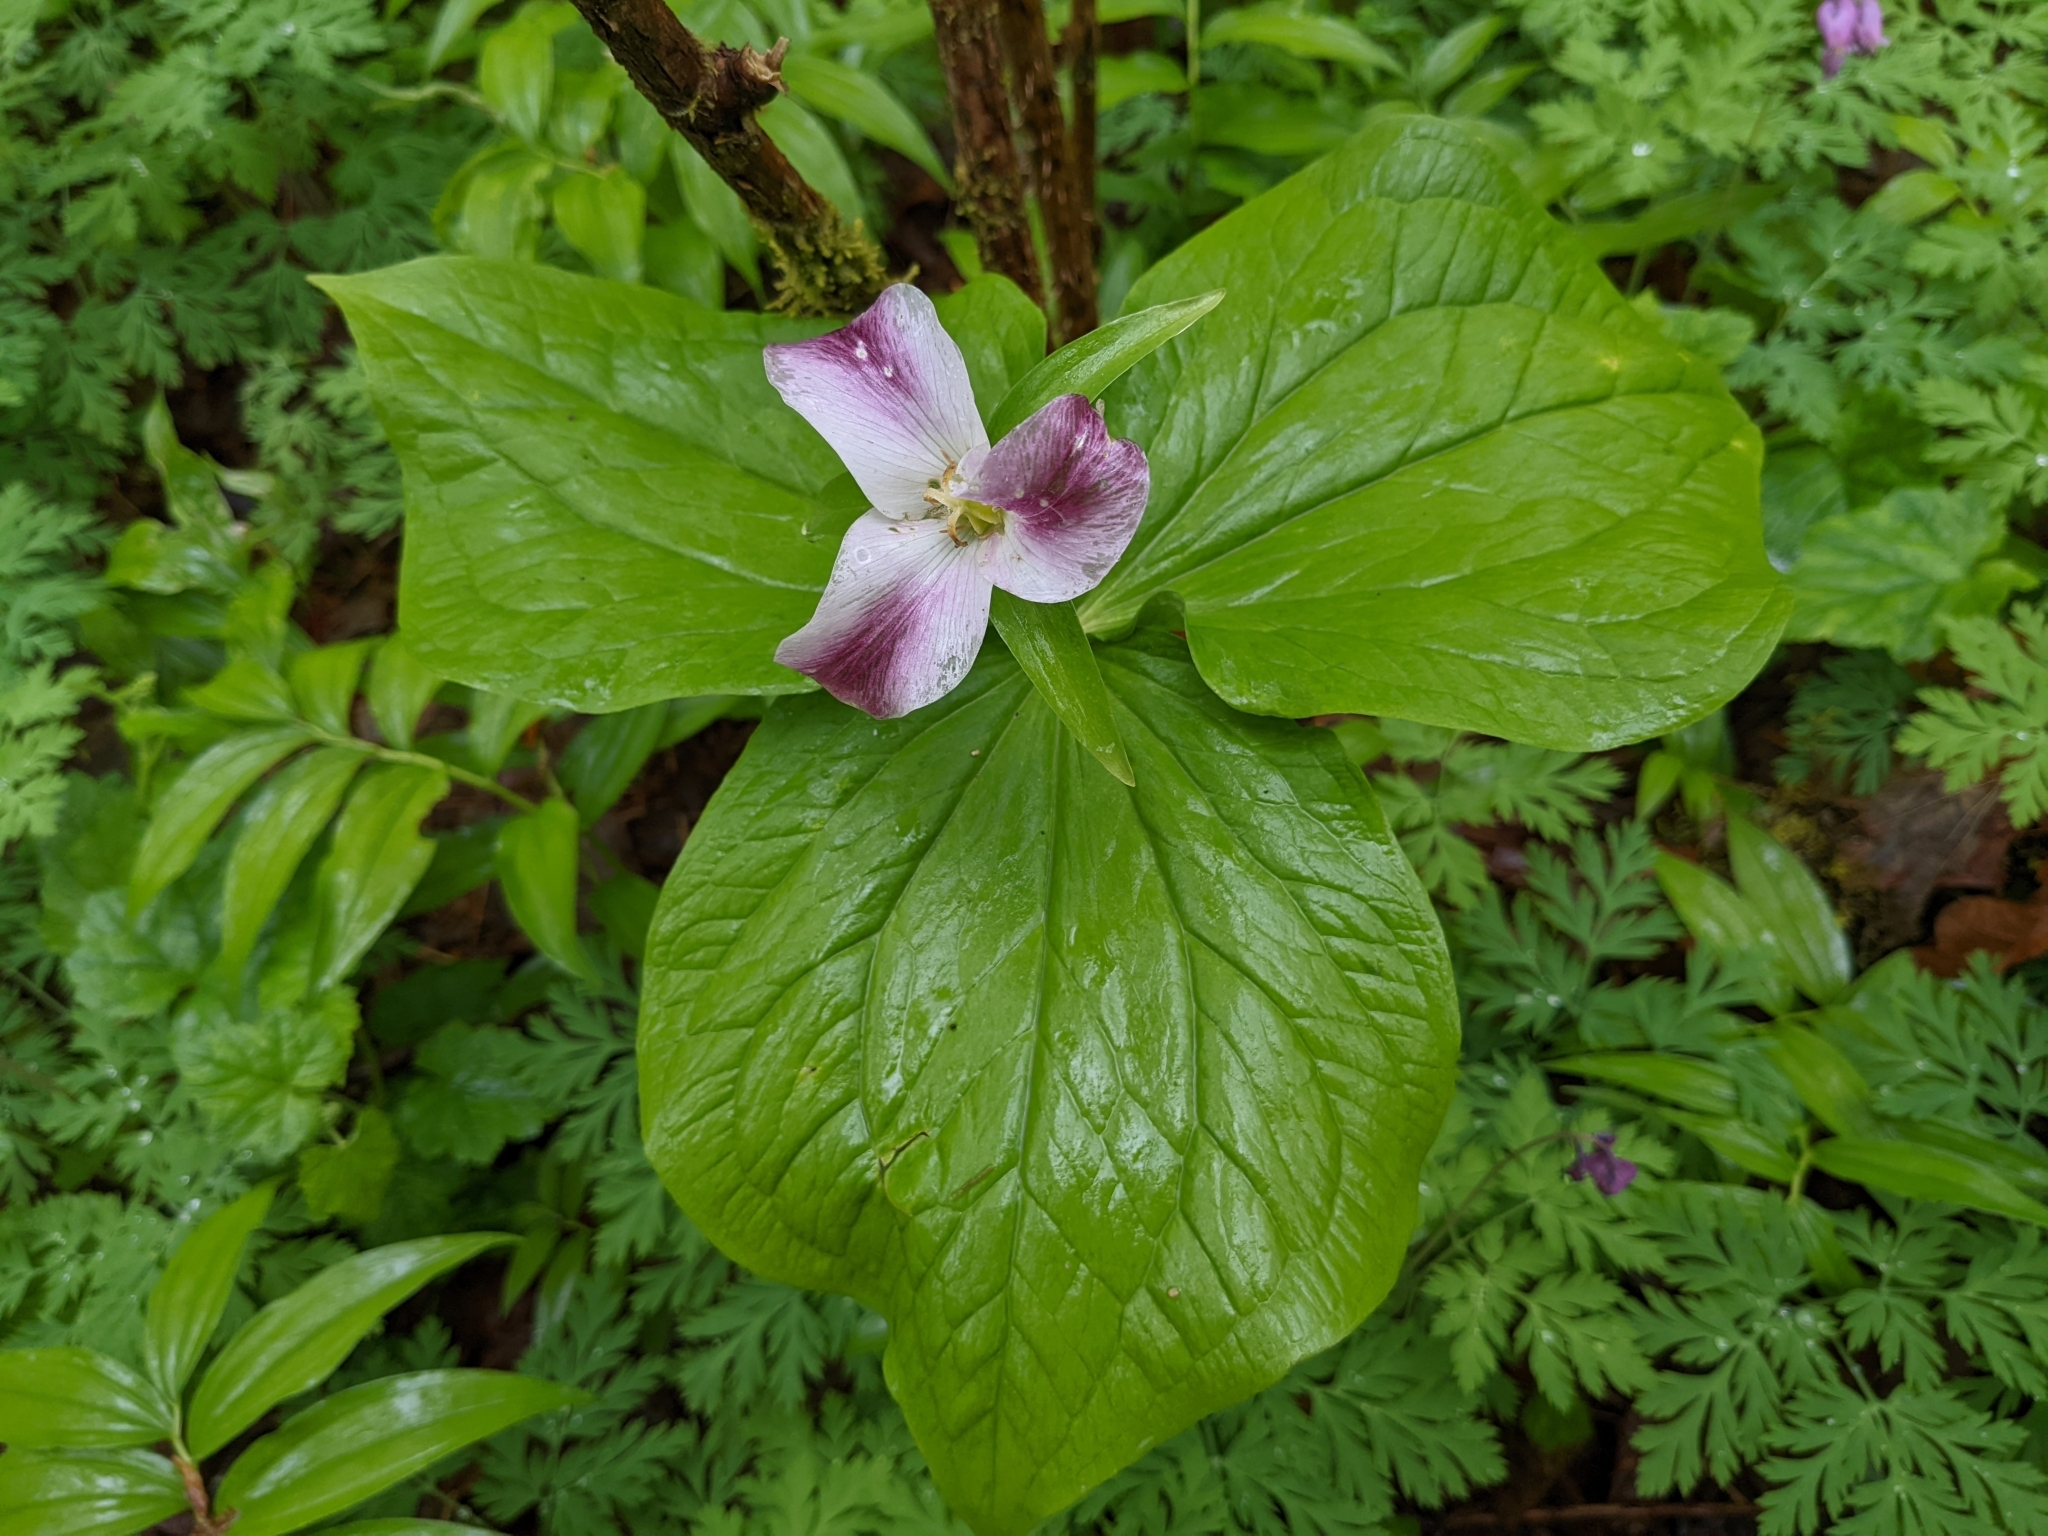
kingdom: Plantae
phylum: Tracheophyta
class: Liliopsida
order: Liliales
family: Melanthiaceae
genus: Trillium
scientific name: Trillium ovatum
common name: Pacific trillium
